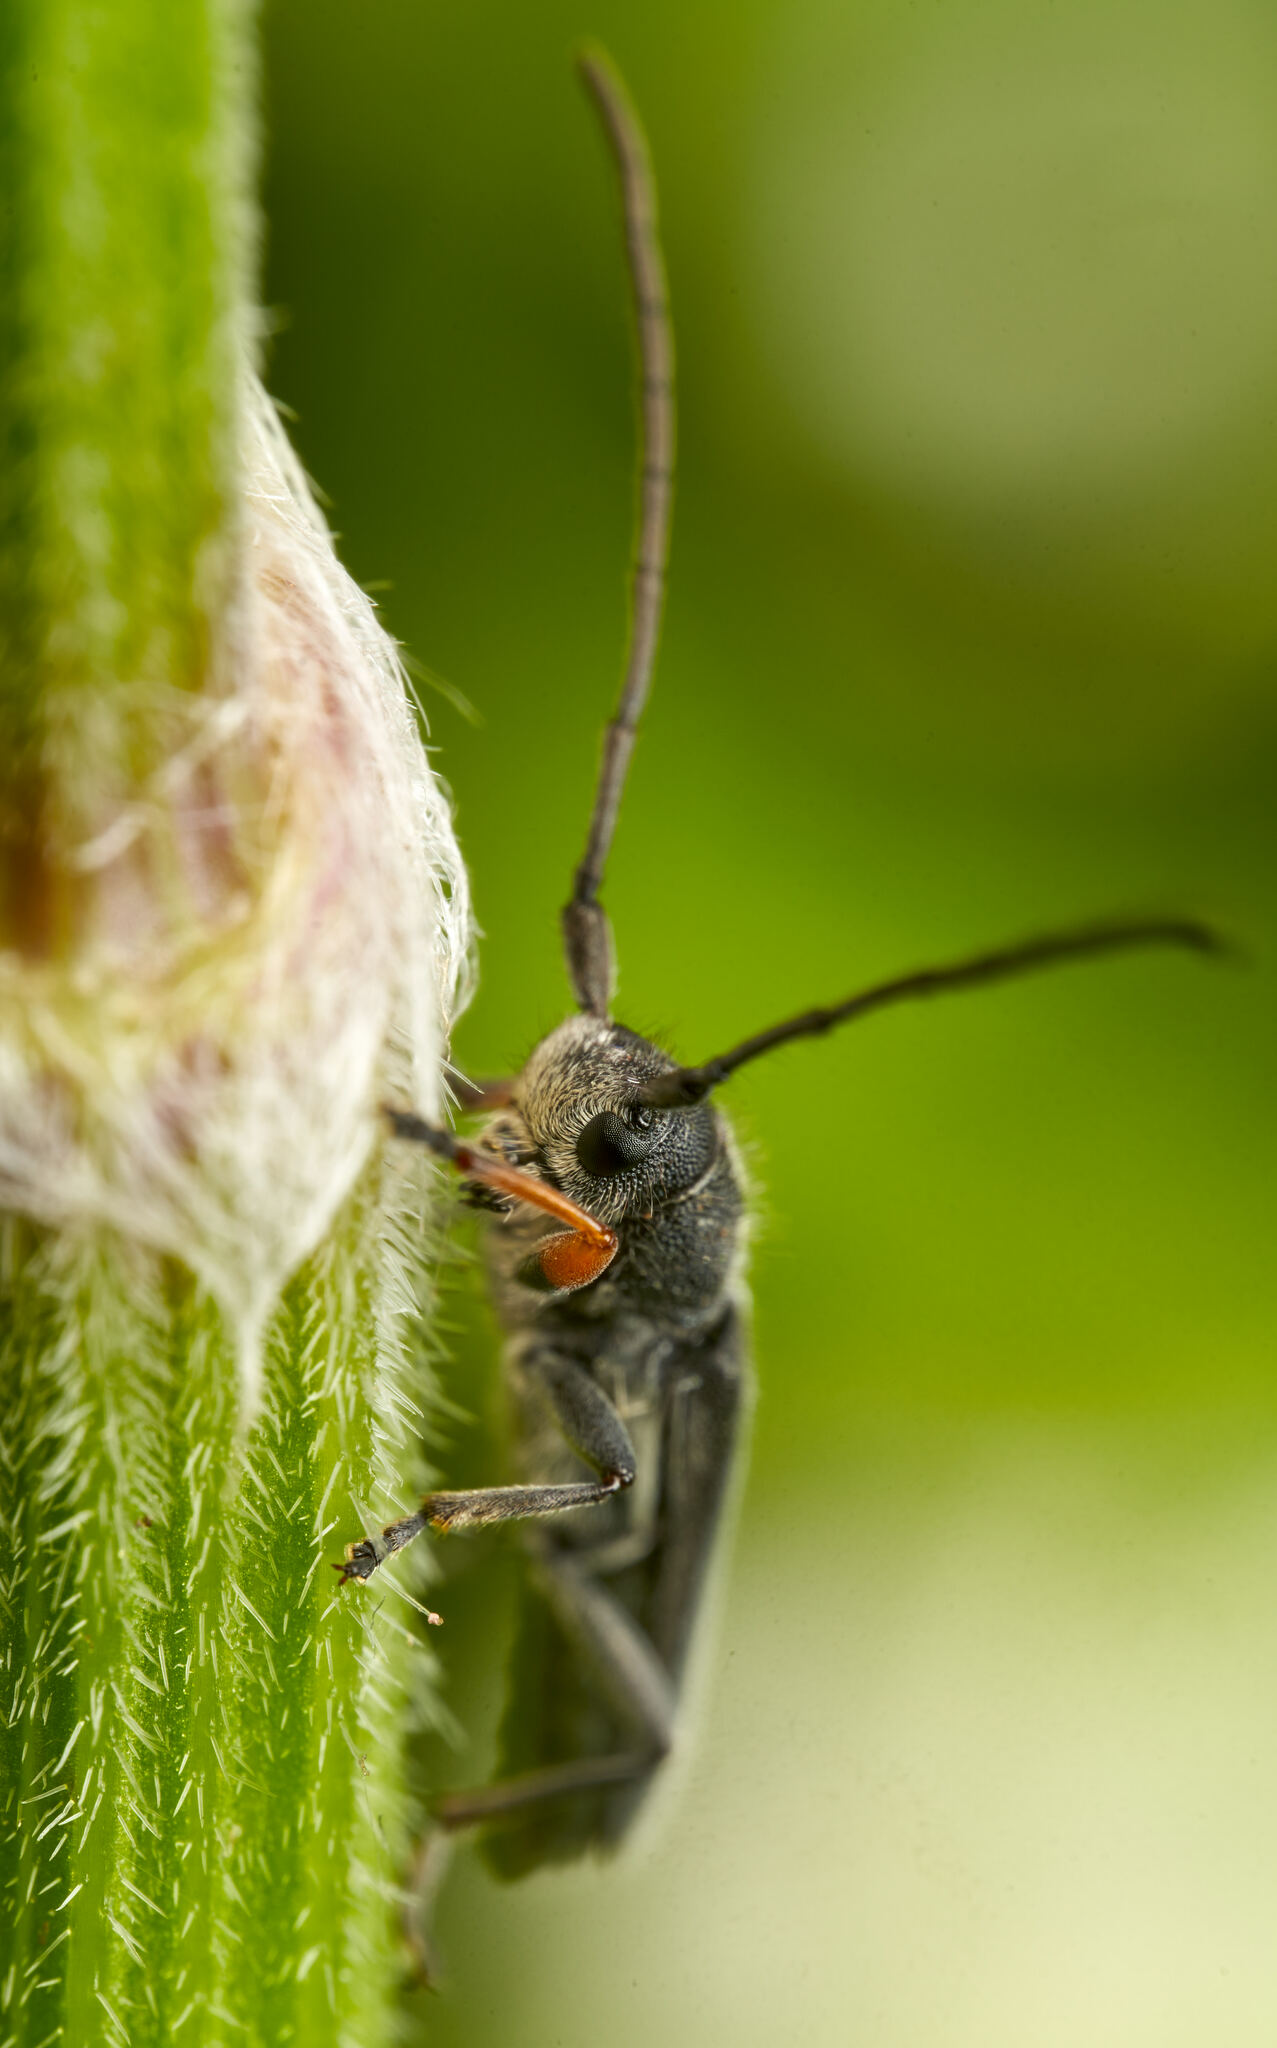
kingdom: Animalia
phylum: Arthropoda
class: Insecta
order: Coleoptera
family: Cerambycidae
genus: Phytoecia
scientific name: Phytoecia cylindrica
